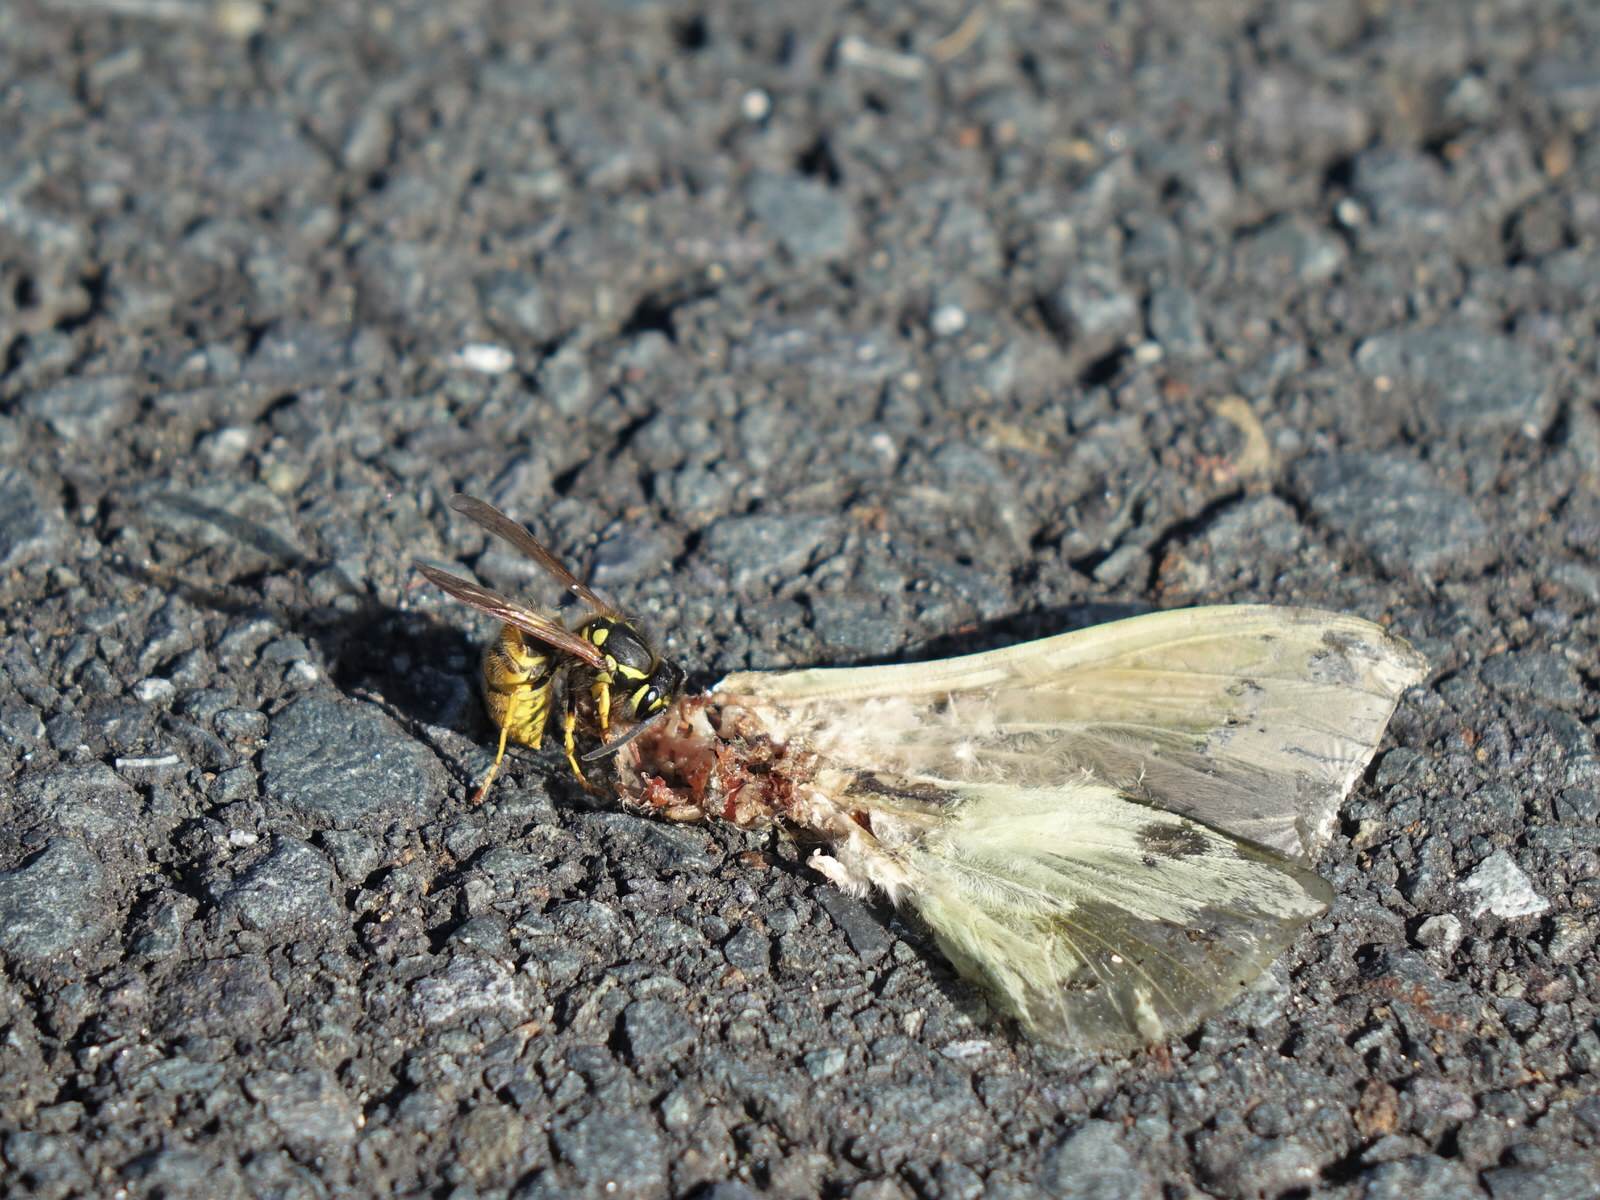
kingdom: Animalia
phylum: Arthropoda
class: Insecta
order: Hymenoptera
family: Vespidae
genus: Vespula
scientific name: Vespula germanica
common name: German wasp
